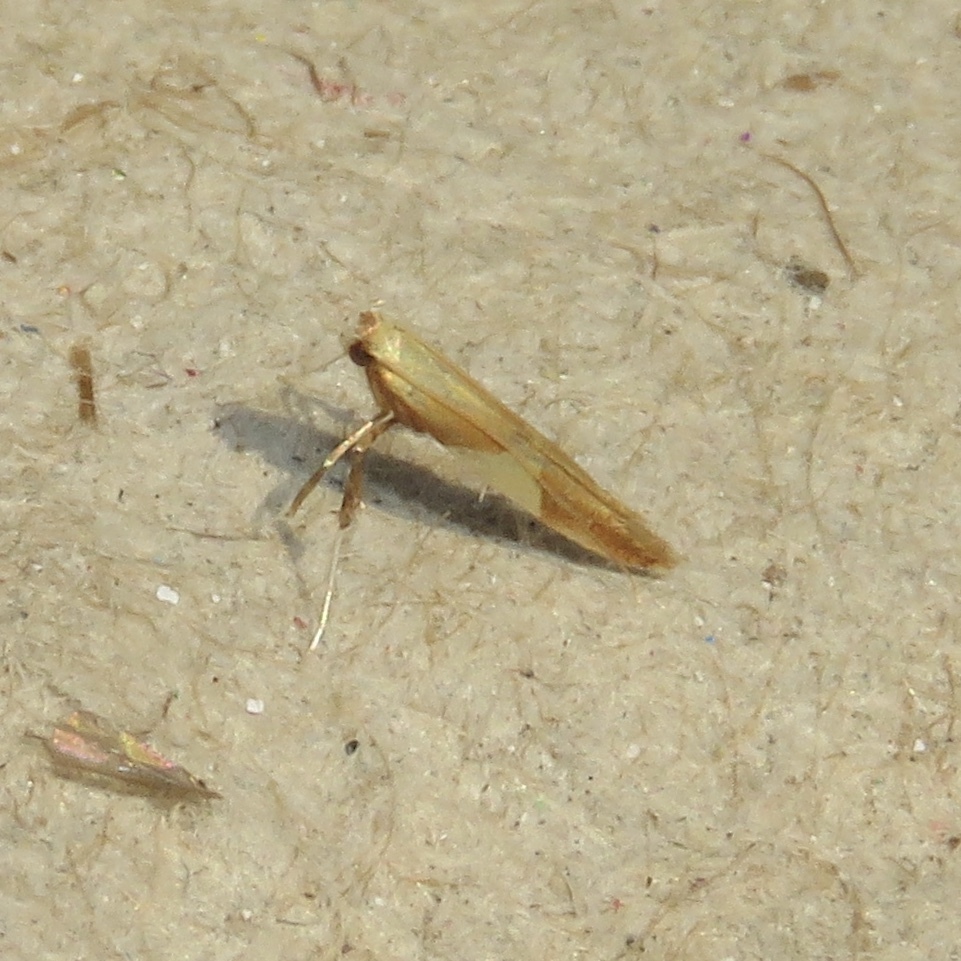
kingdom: Animalia
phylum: Arthropoda
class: Insecta
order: Lepidoptera
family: Gracillariidae
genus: Caloptilia
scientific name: Caloptilia packardella
